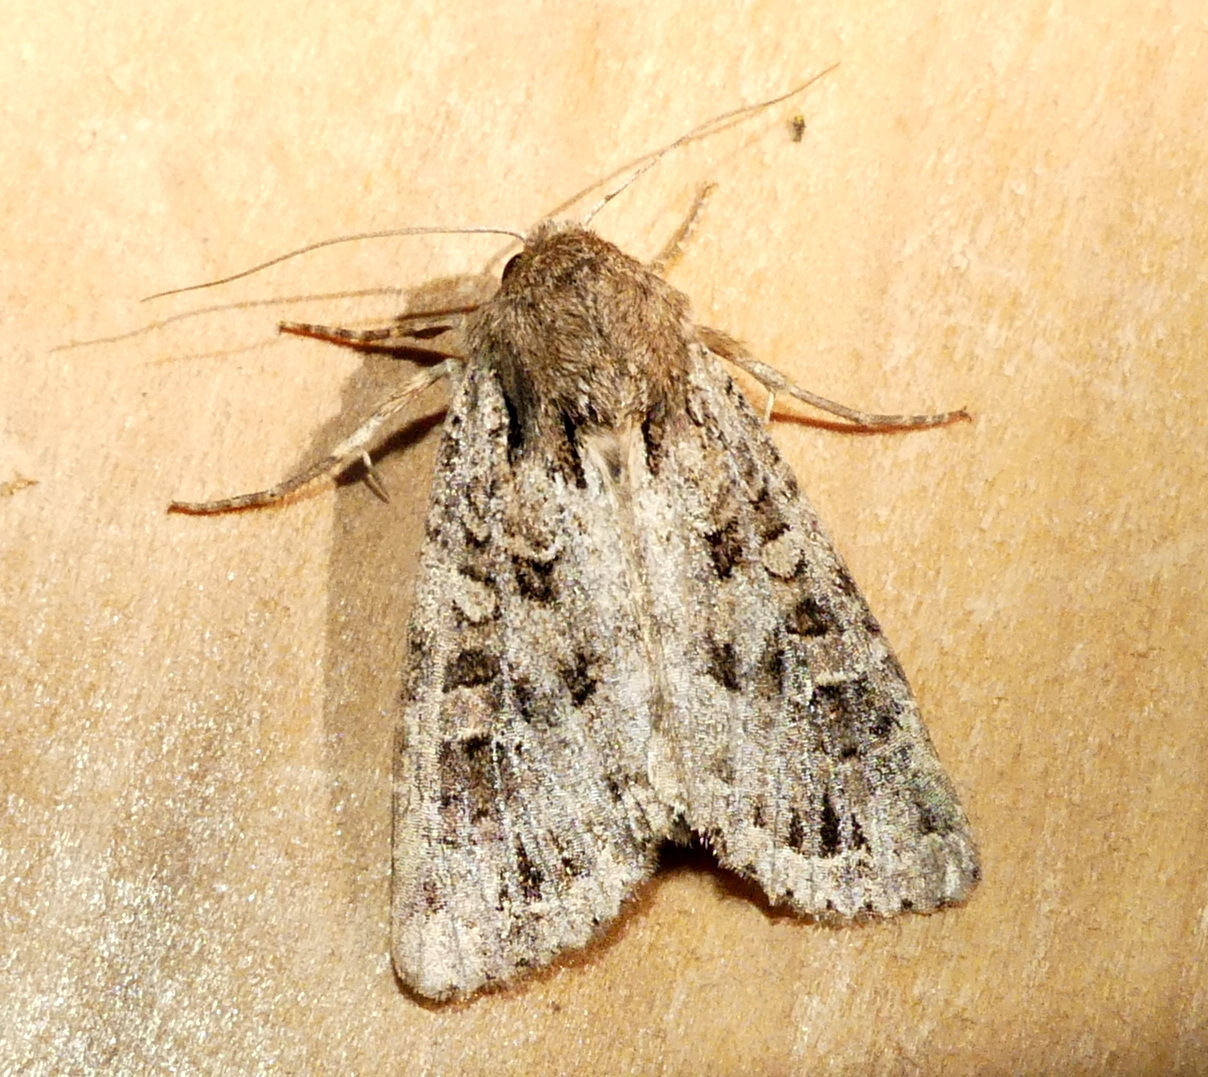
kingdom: Animalia
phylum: Arthropoda
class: Insecta
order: Lepidoptera
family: Noctuidae
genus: Apamea
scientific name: Apamea devastator
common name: Glassy cutworm
